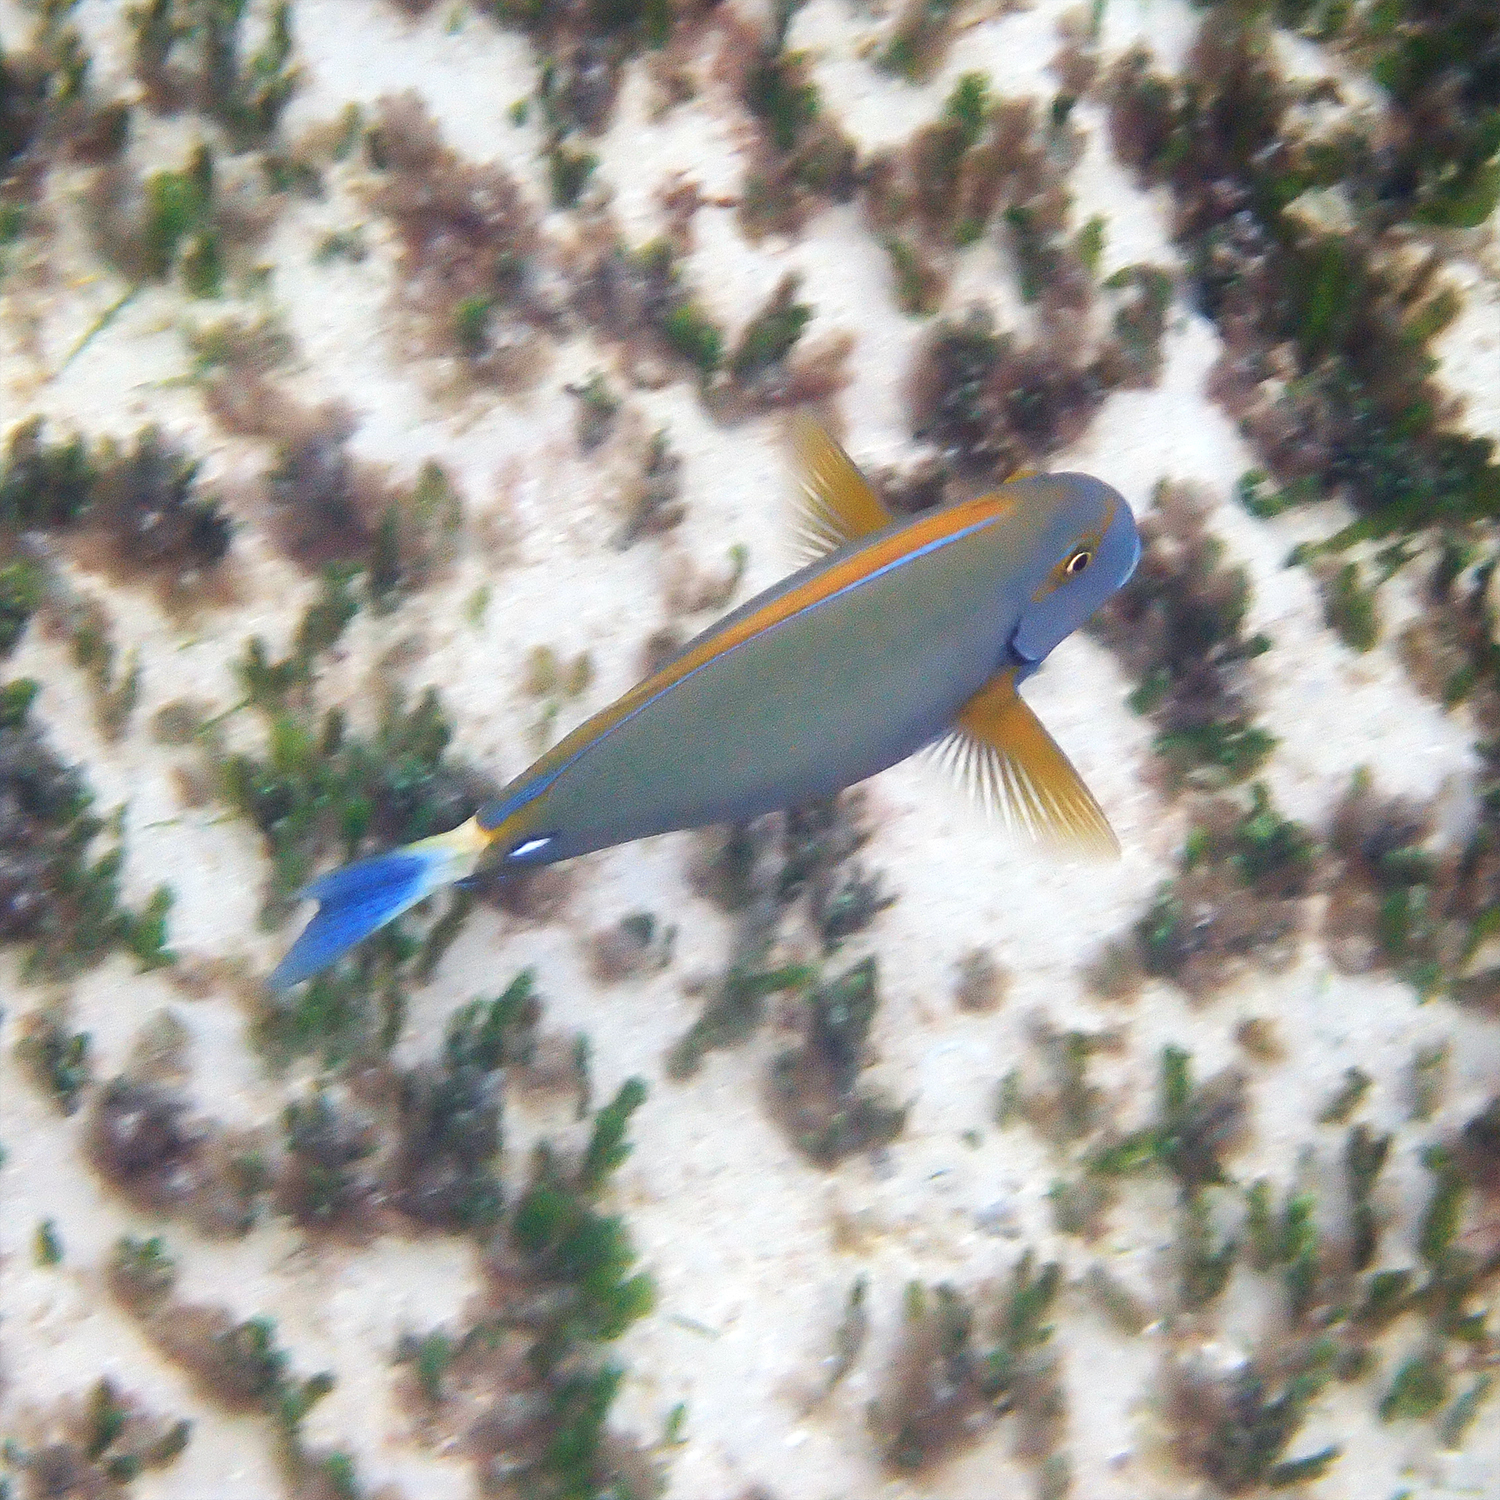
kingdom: Animalia
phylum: Chordata
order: Perciformes
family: Acanthuridae
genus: Acanthurus
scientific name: Acanthurus dussumieri
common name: Dussumier's surgeonfish
